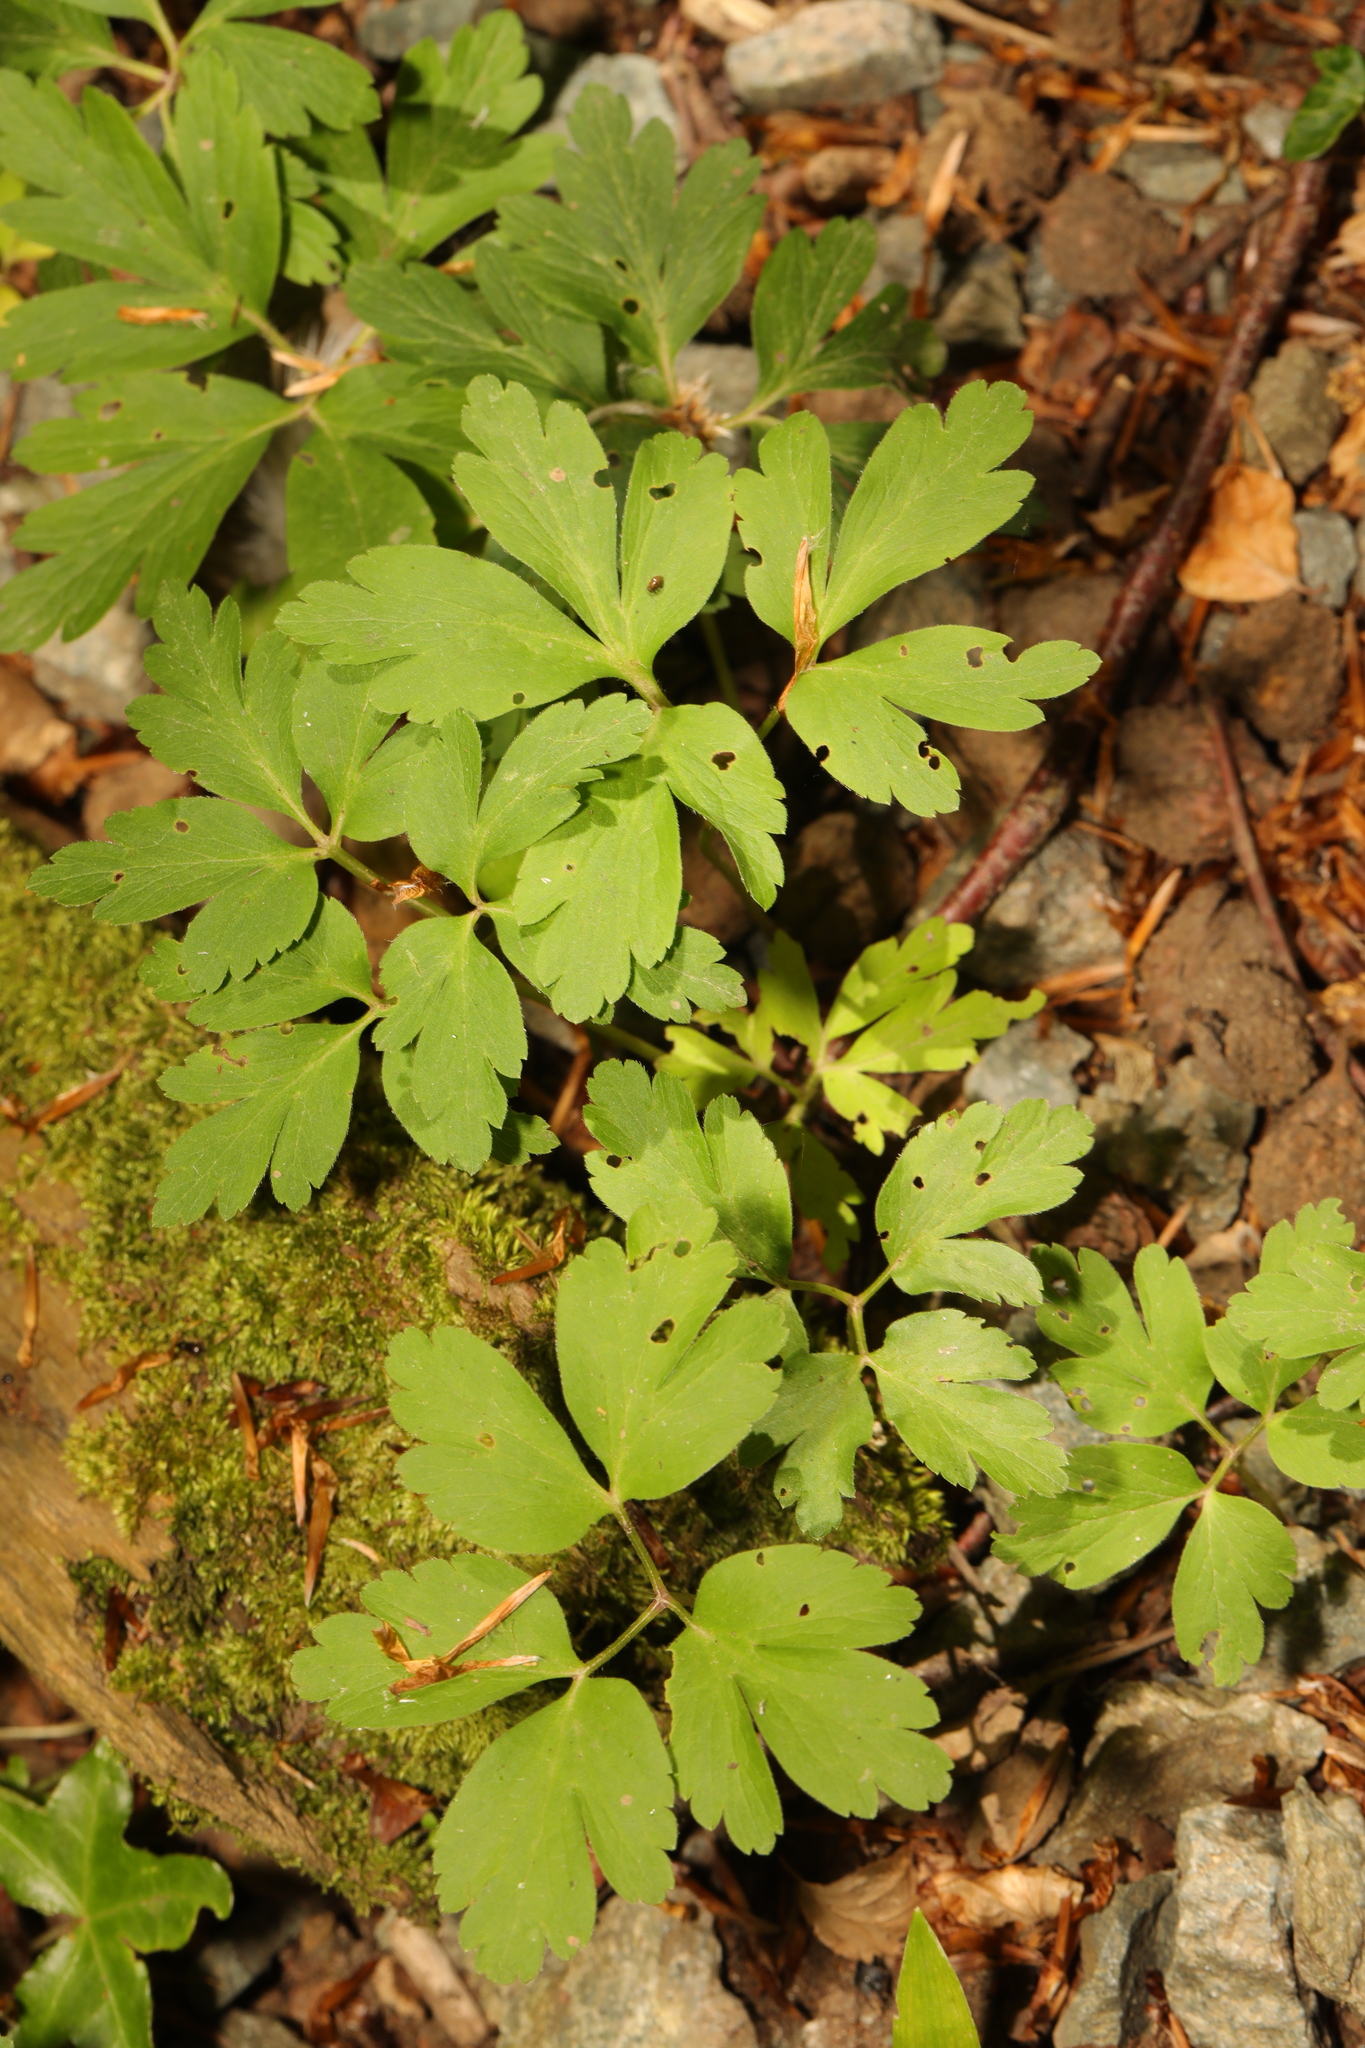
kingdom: Plantae
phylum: Tracheophyta
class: Magnoliopsida
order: Ranunculales
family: Ranunculaceae
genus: Anemone
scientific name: Anemone nemorosa
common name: Wood anemone
